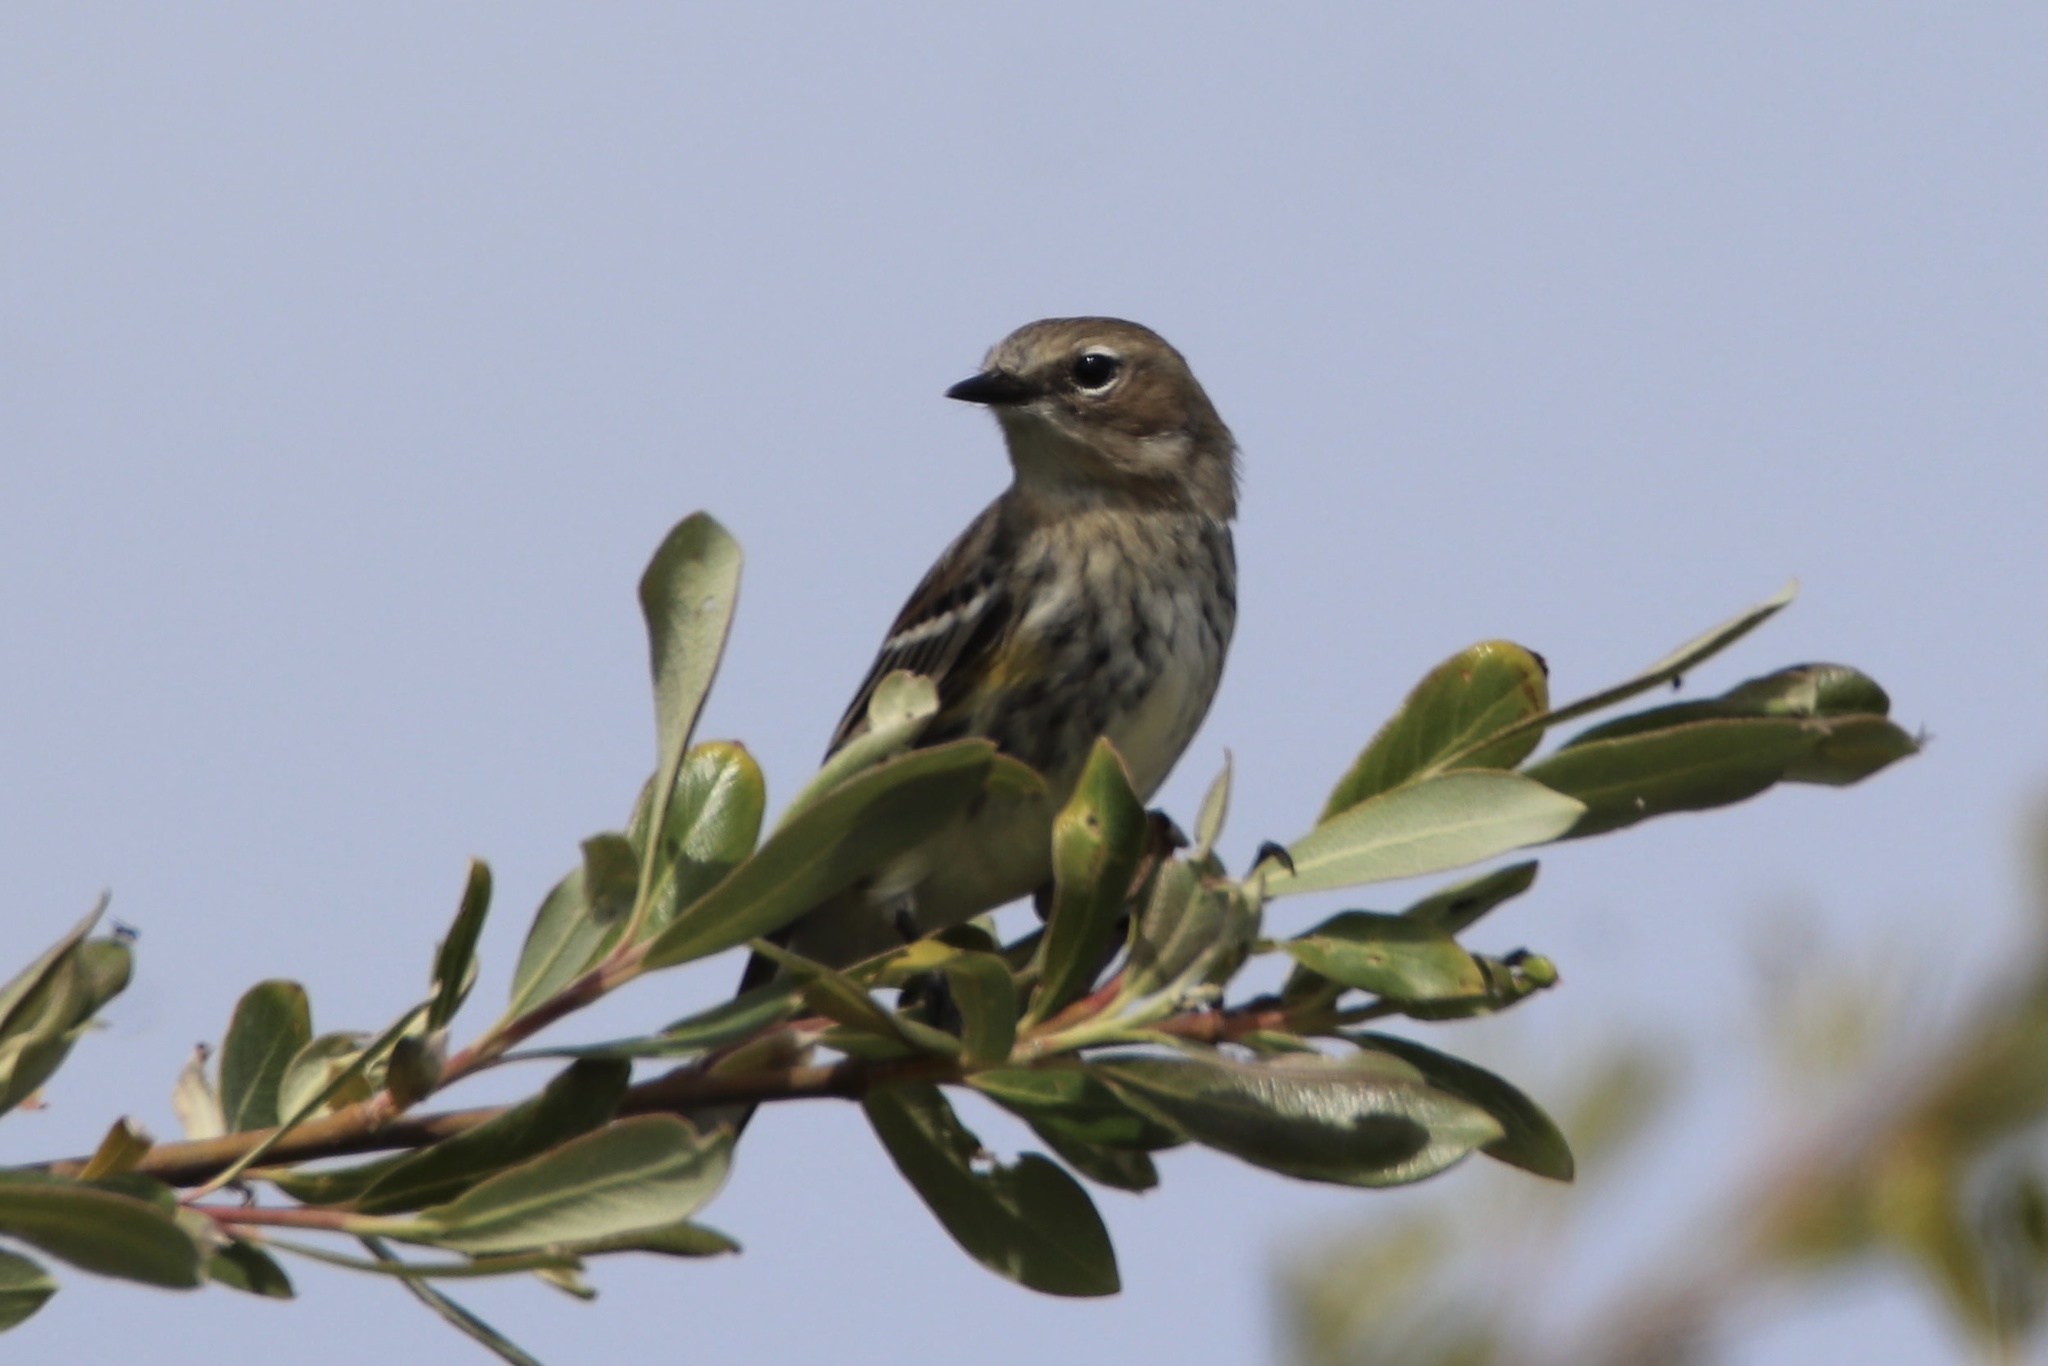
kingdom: Animalia
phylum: Chordata
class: Aves
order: Passeriformes
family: Parulidae
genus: Setophaga
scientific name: Setophaga coronata
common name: Myrtle warbler
